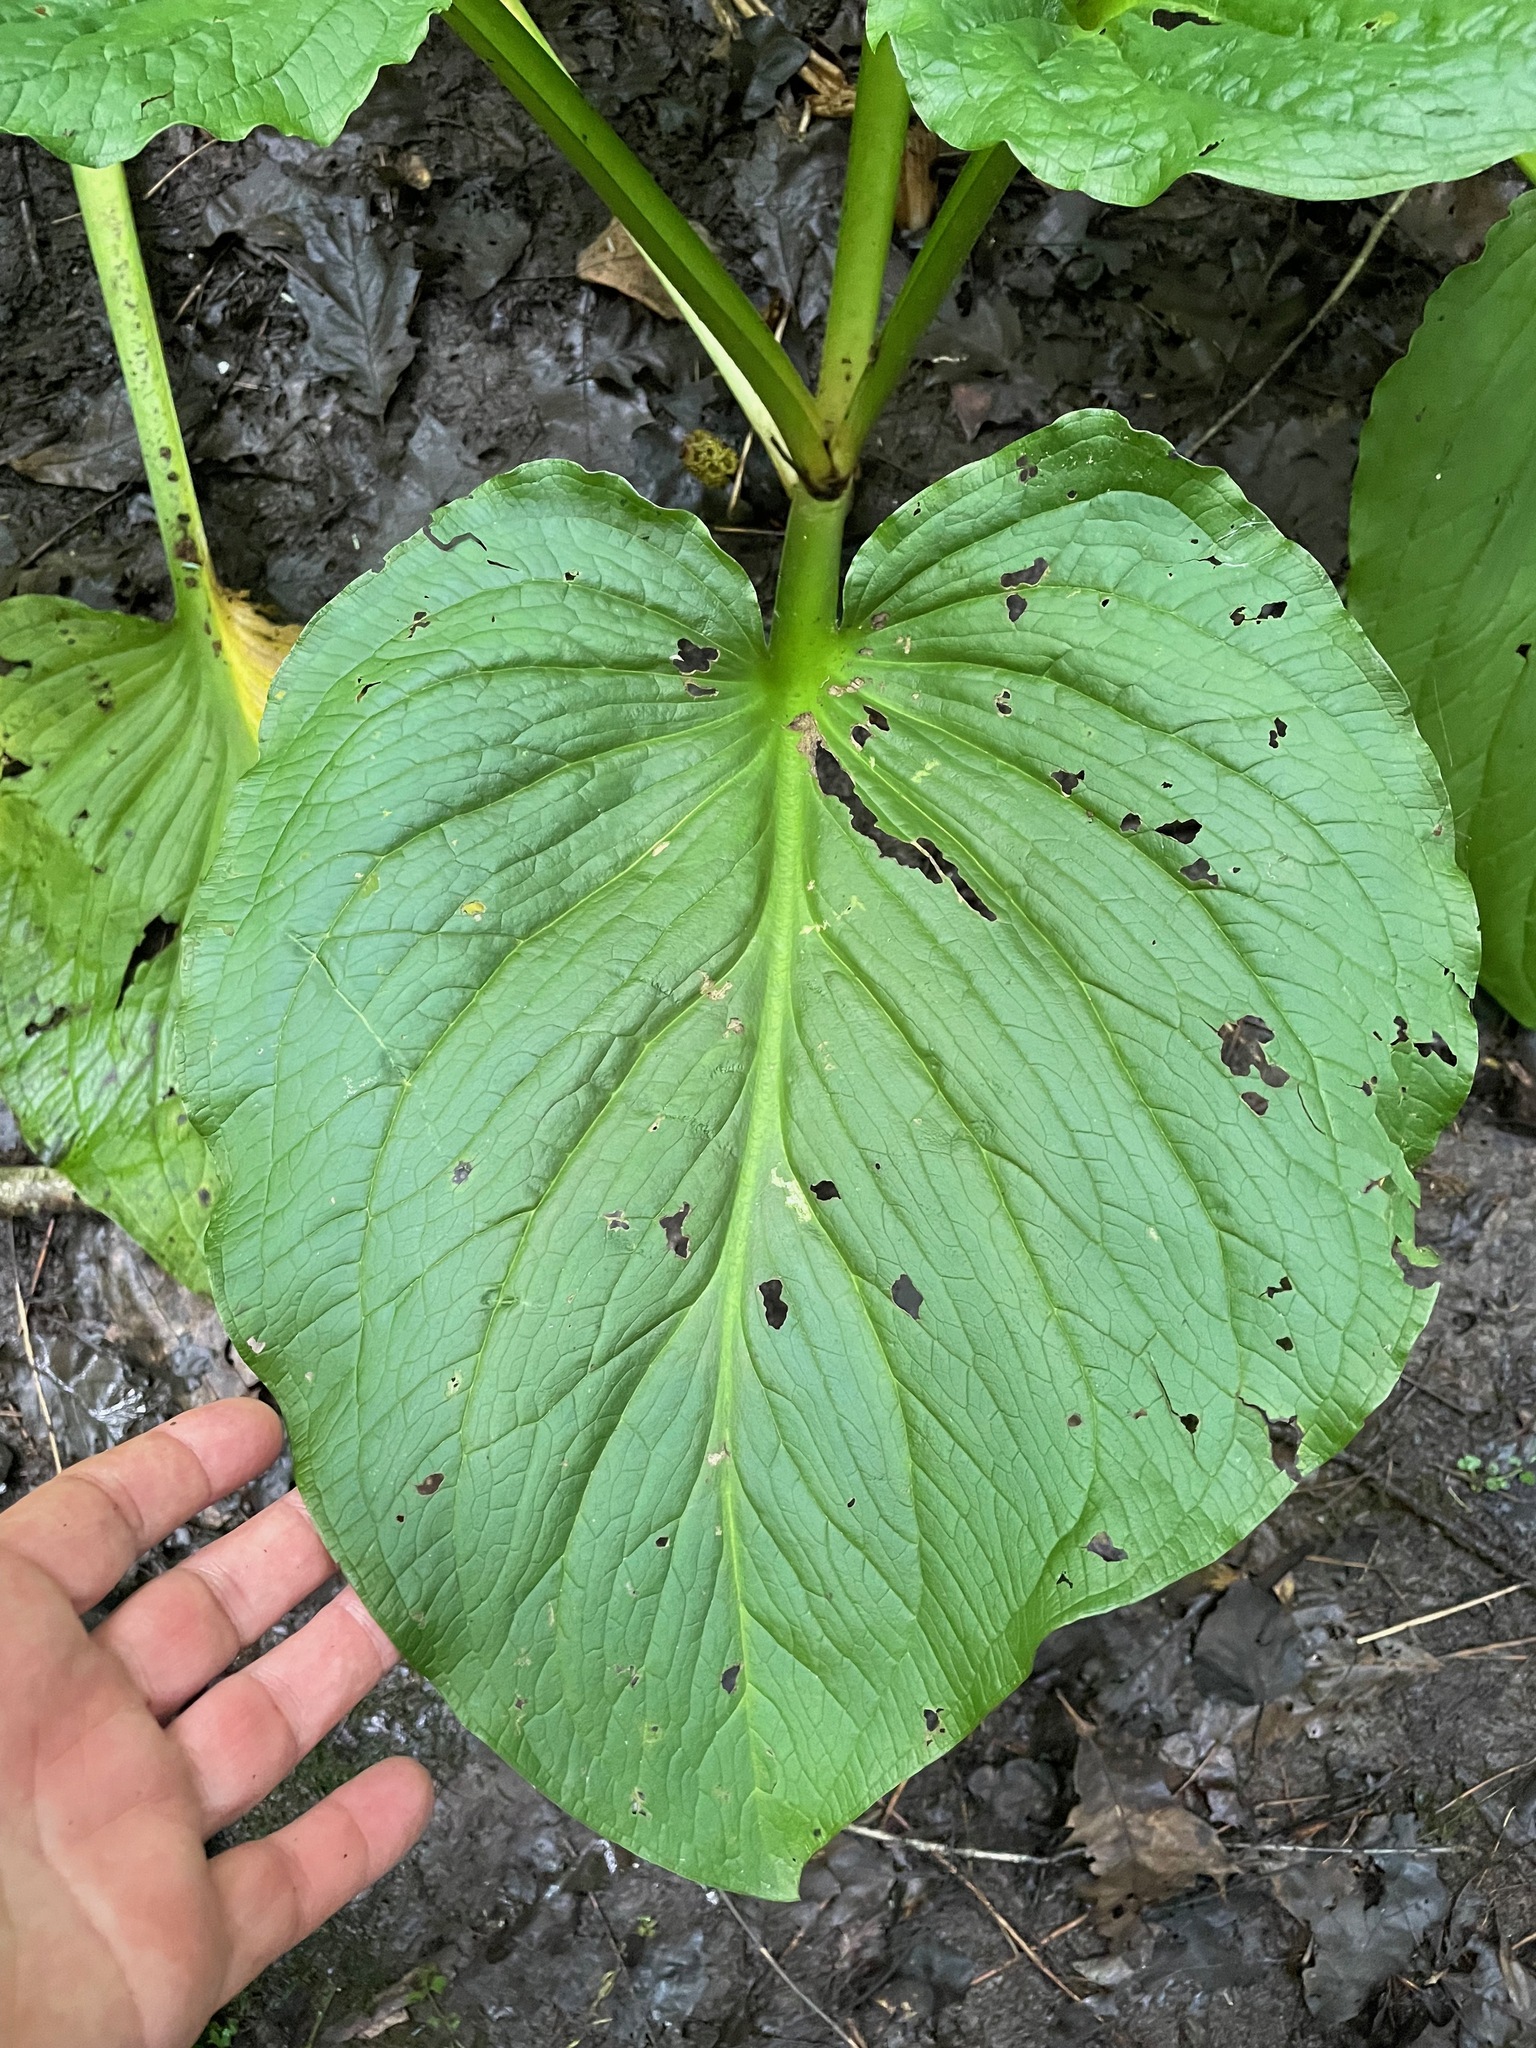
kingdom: Plantae
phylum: Tracheophyta
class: Liliopsida
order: Alismatales
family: Araceae
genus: Symplocarpus
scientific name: Symplocarpus foetidus
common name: Eastern skunk cabbage
